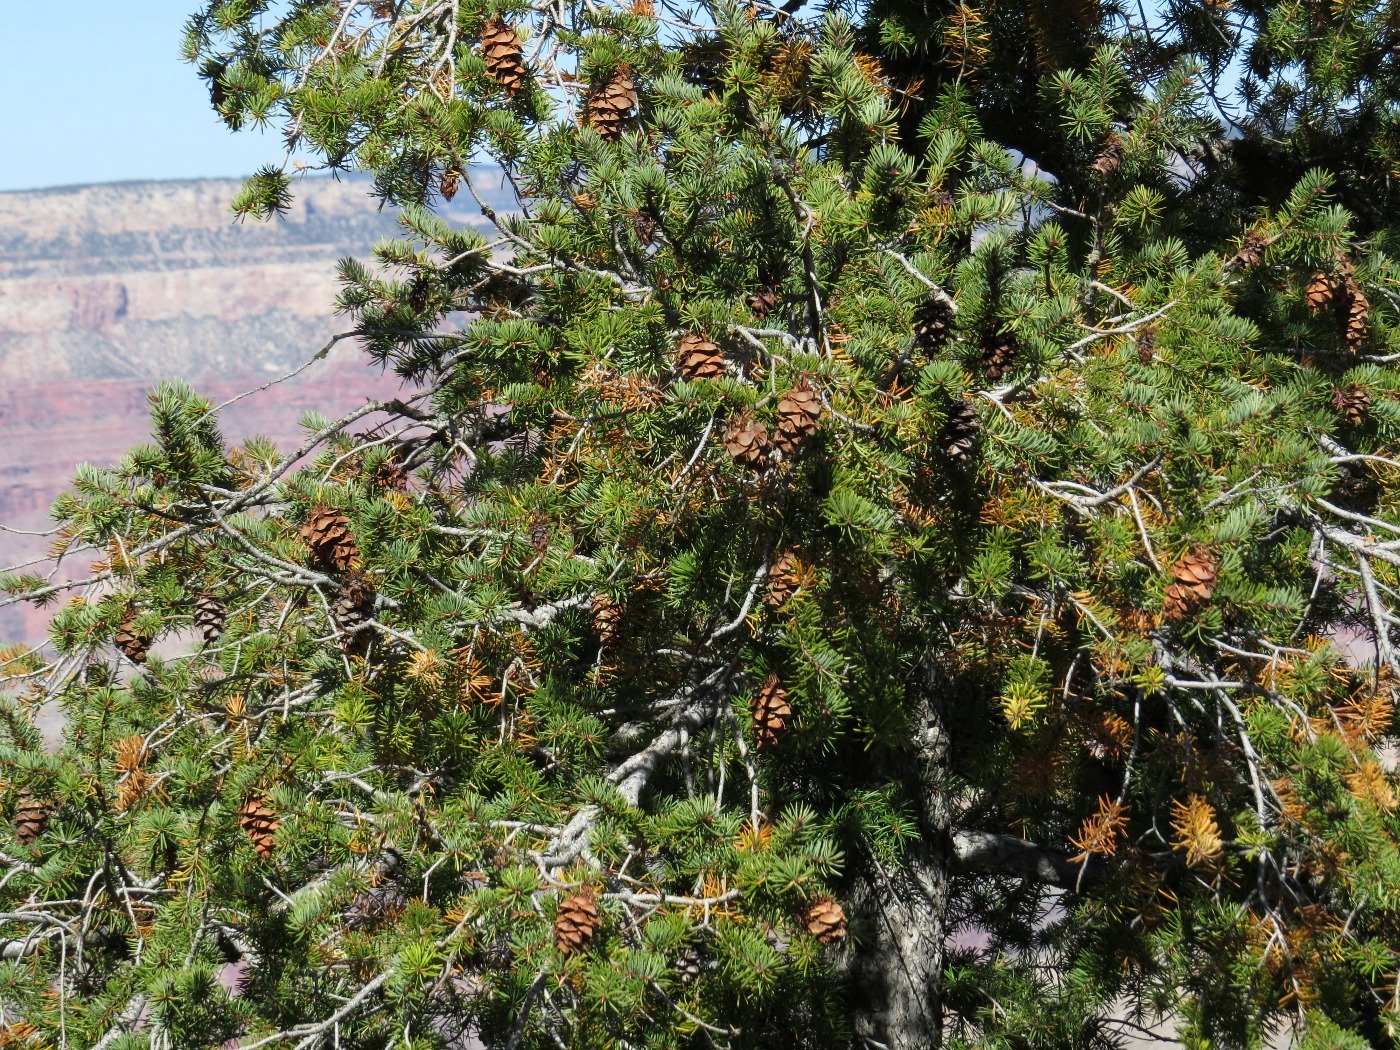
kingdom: Plantae
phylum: Tracheophyta
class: Pinopsida
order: Pinales
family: Pinaceae
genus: Pseudotsuga
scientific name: Pseudotsuga menziesii
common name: Douglas fir
